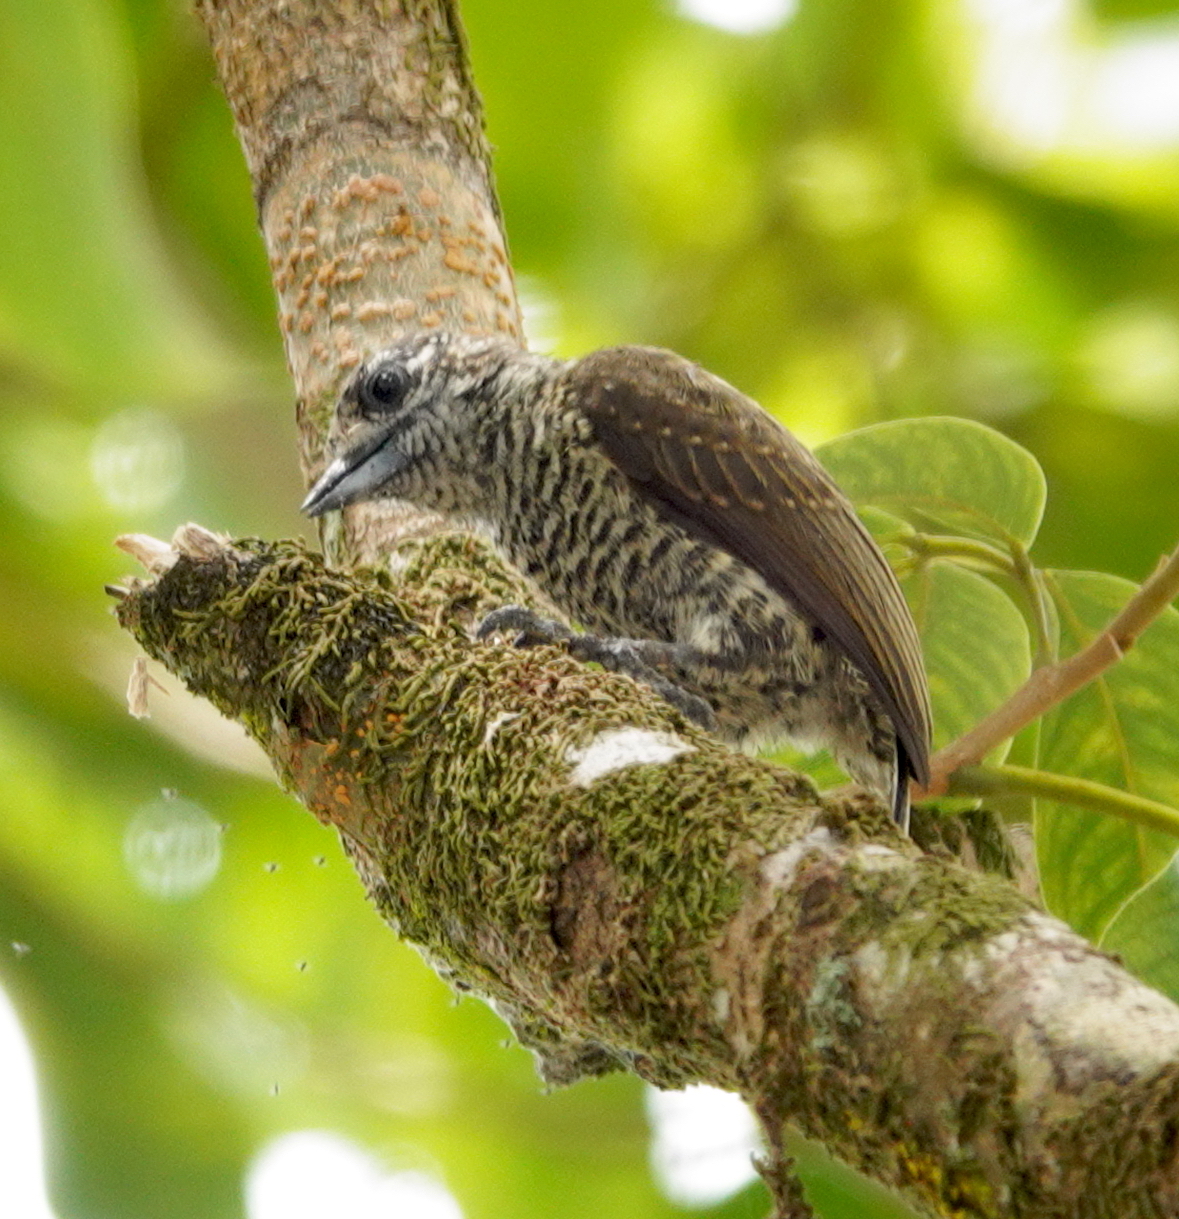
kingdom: Animalia
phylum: Chordata
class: Aves
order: Piciformes
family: Picidae
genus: Picumnus
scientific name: Picumnus exilis
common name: Golden-spangled piculet
